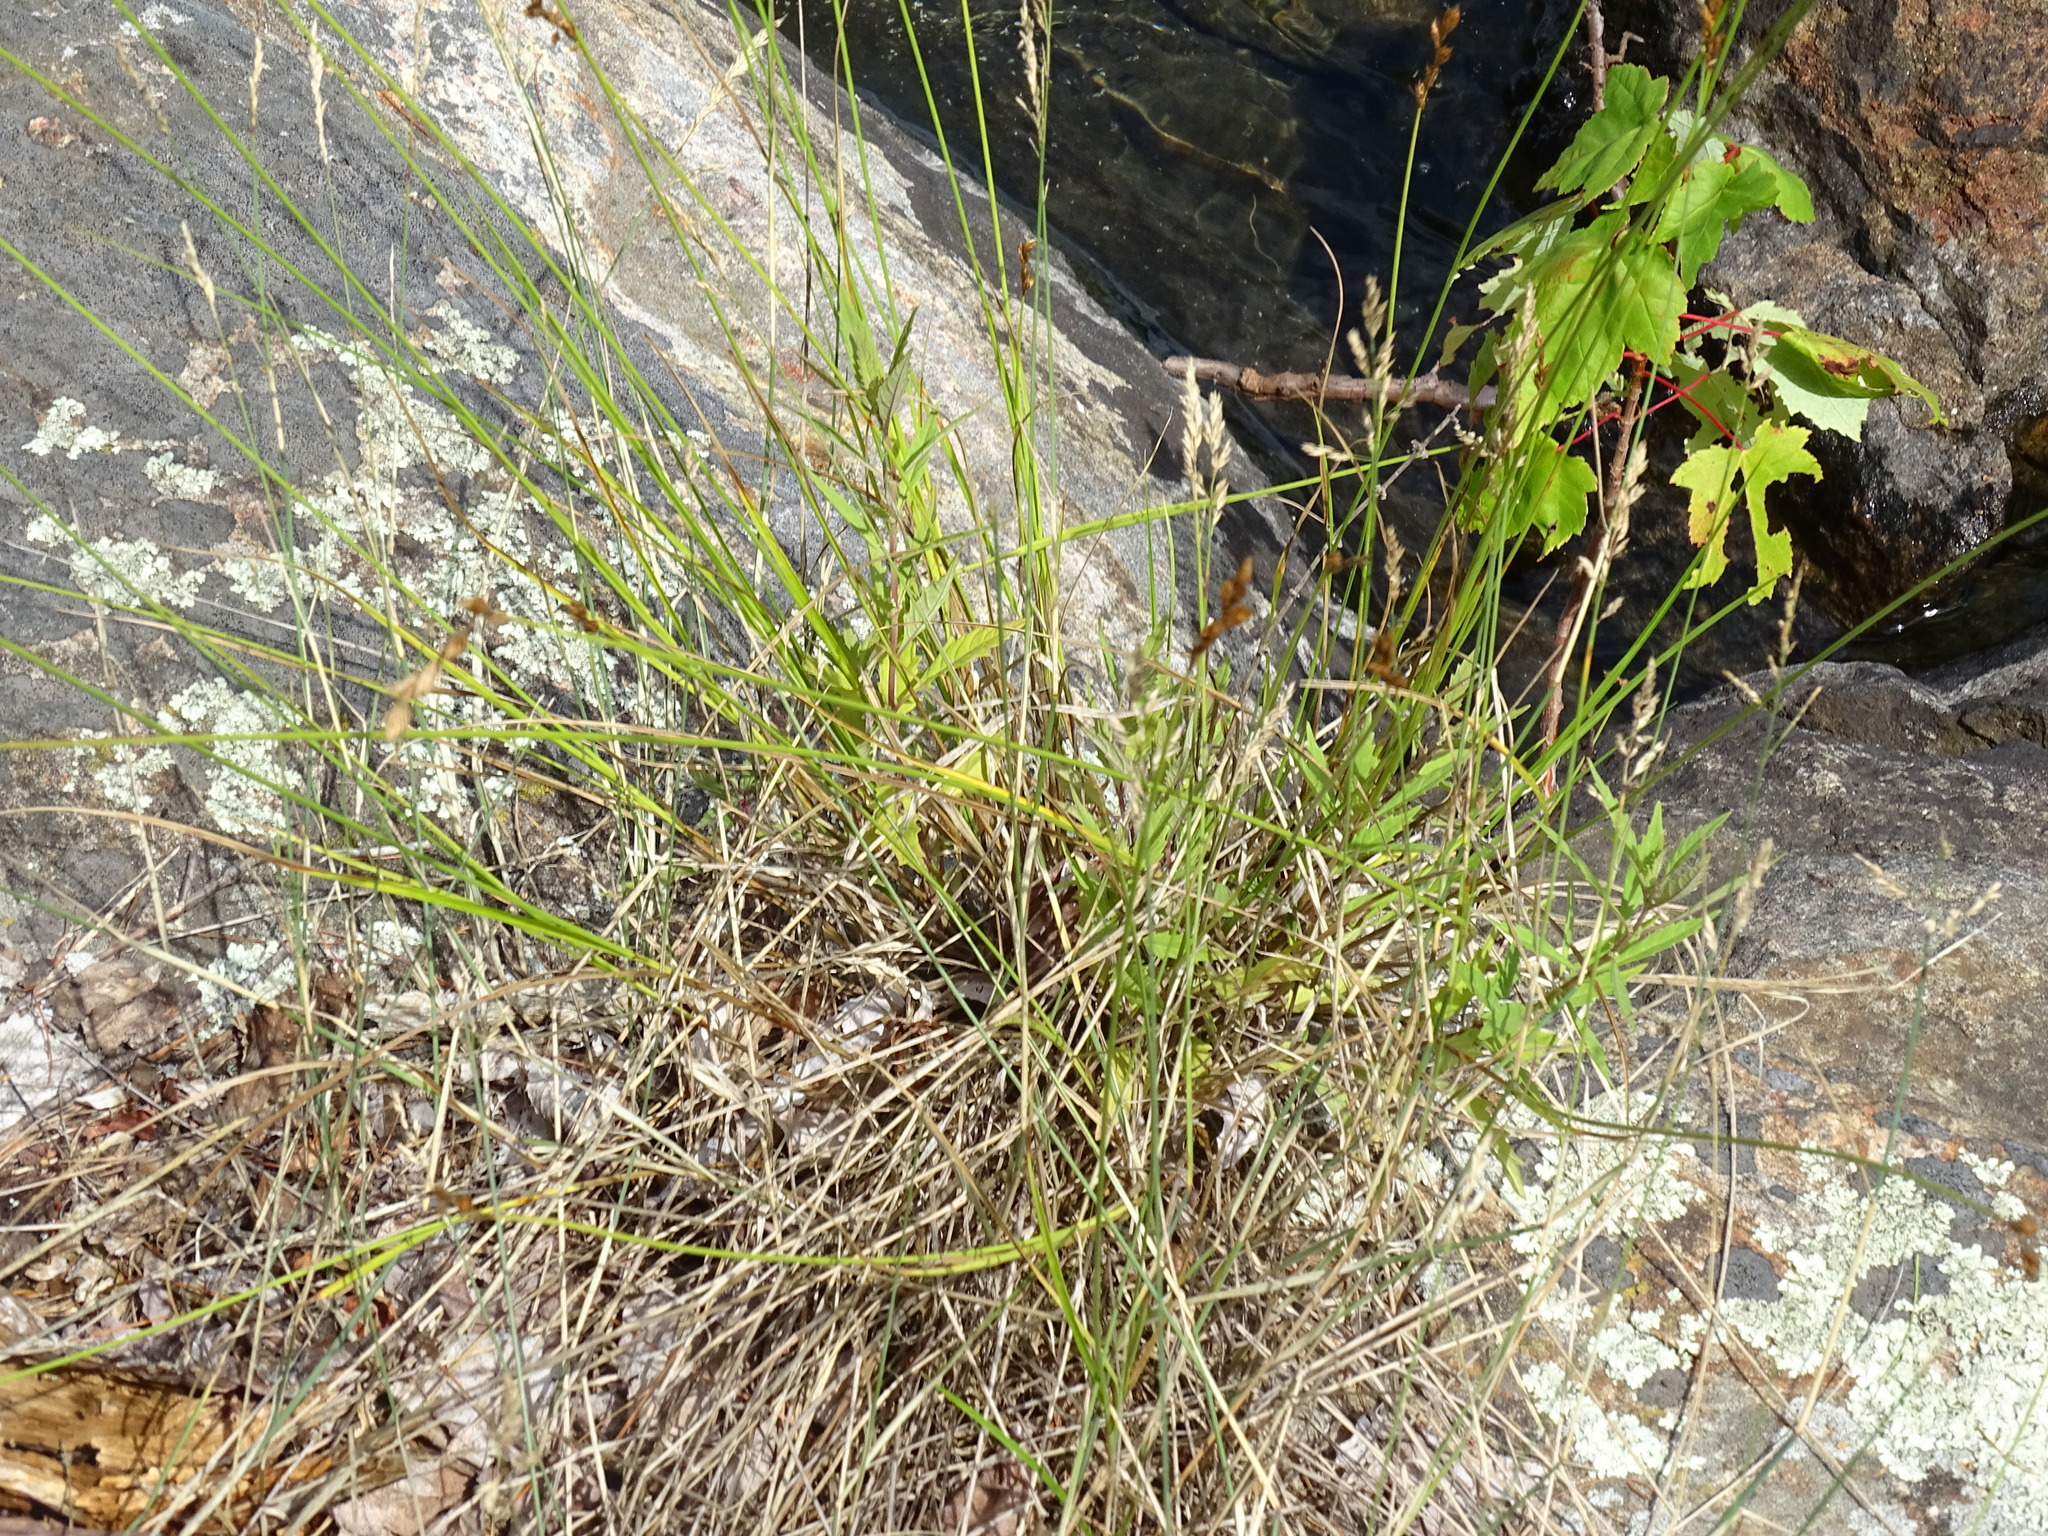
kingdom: Plantae
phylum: Tracheophyta
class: Liliopsida
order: Poales
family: Cyperaceae
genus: Carex
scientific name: Carex scoparia
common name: Broom sedge
